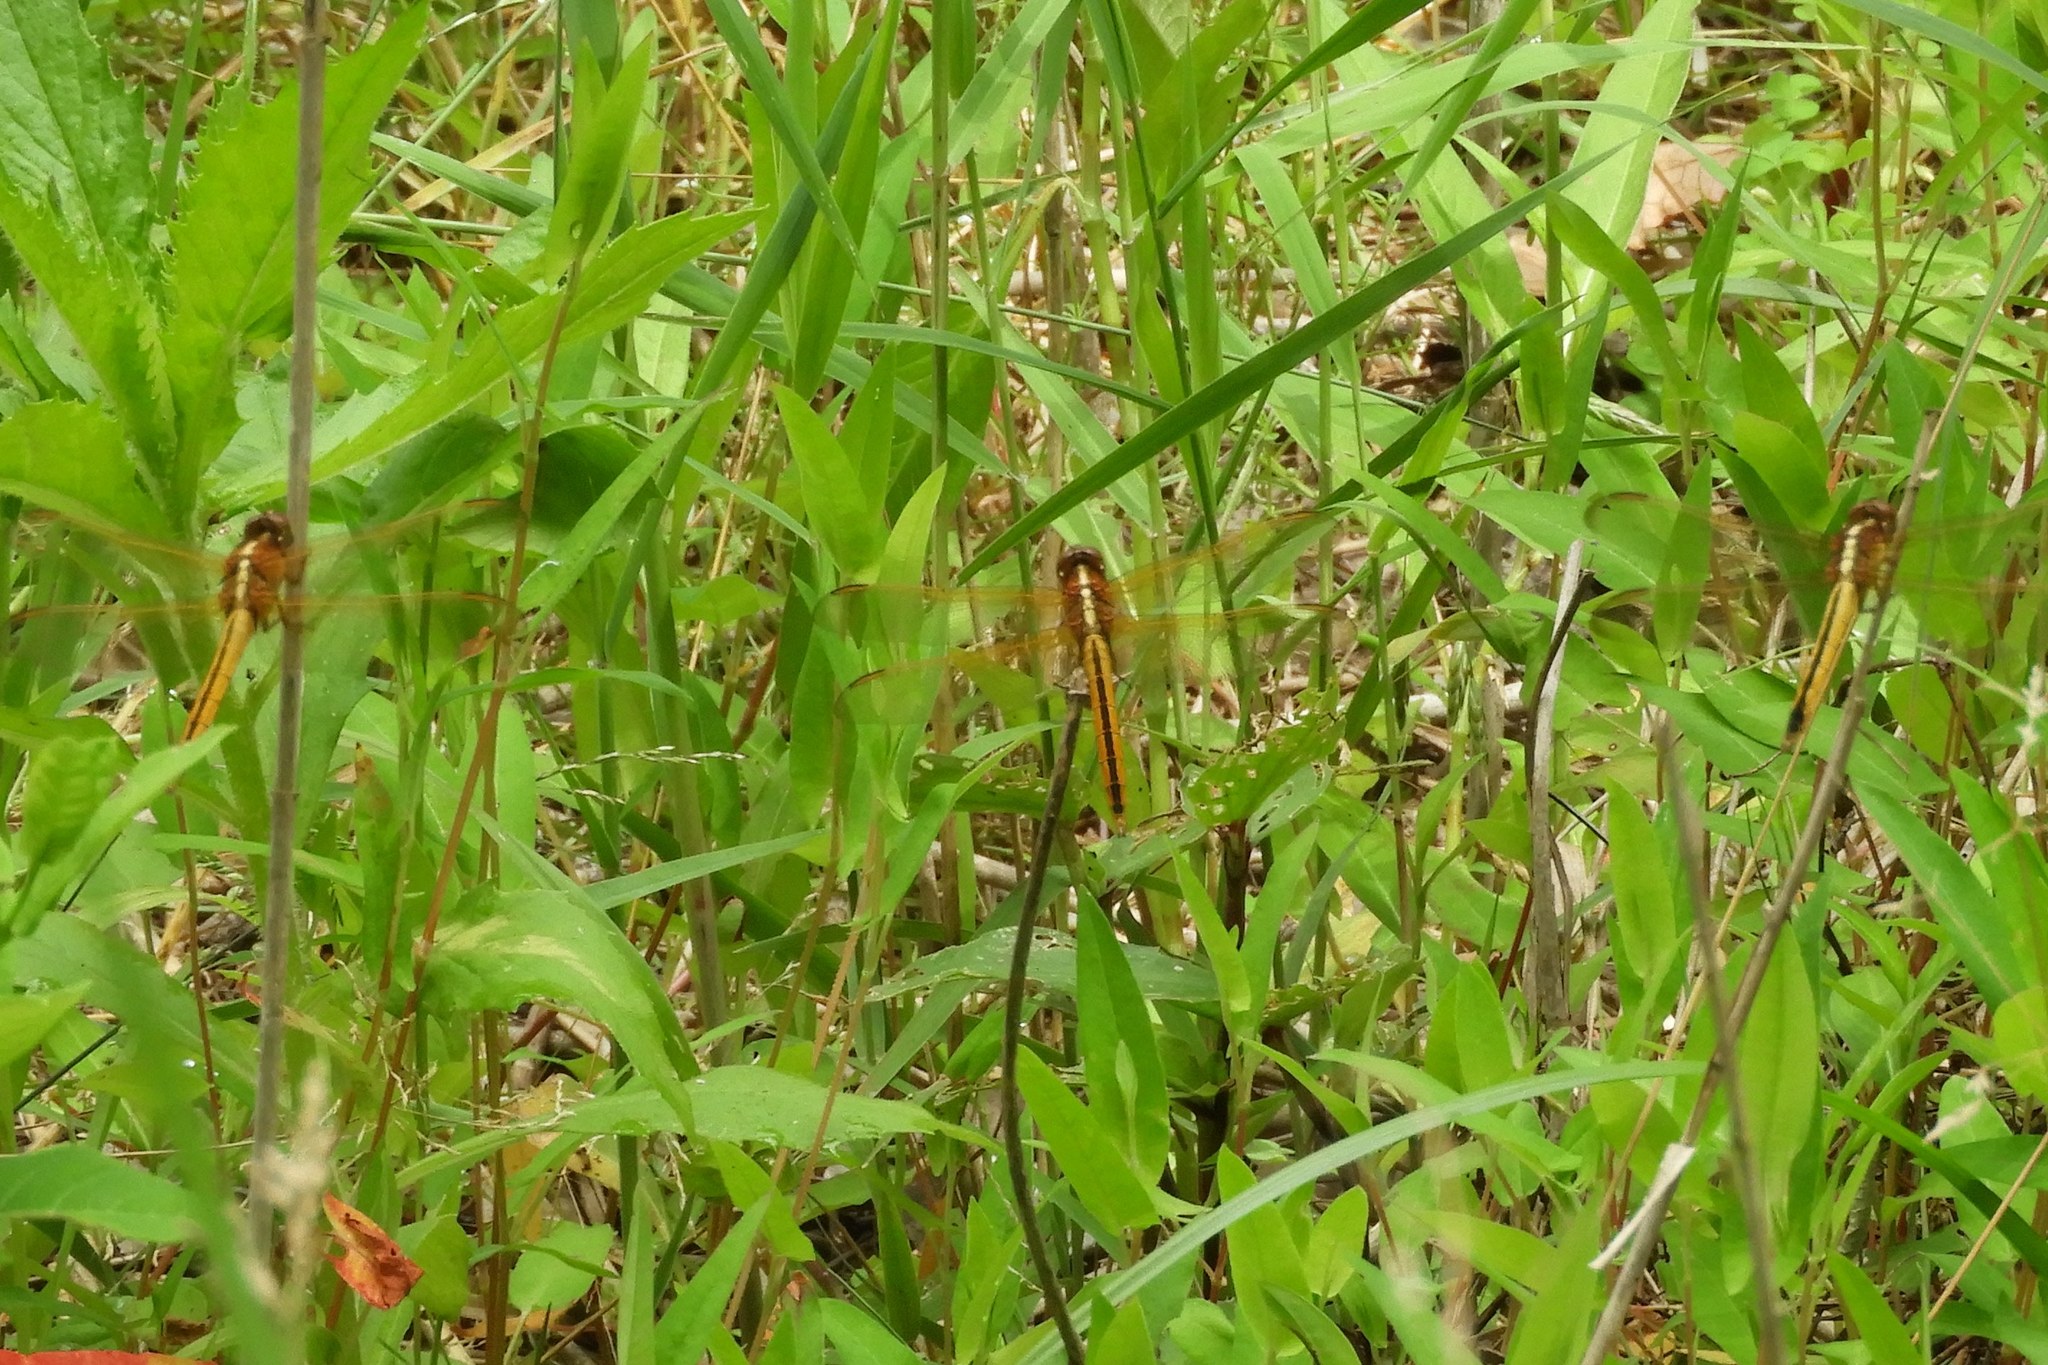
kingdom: Animalia
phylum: Arthropoda
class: Insecta
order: Odonata
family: Libellulidae
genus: Libellula
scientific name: Libellula needhami
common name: Needham's skimmer
